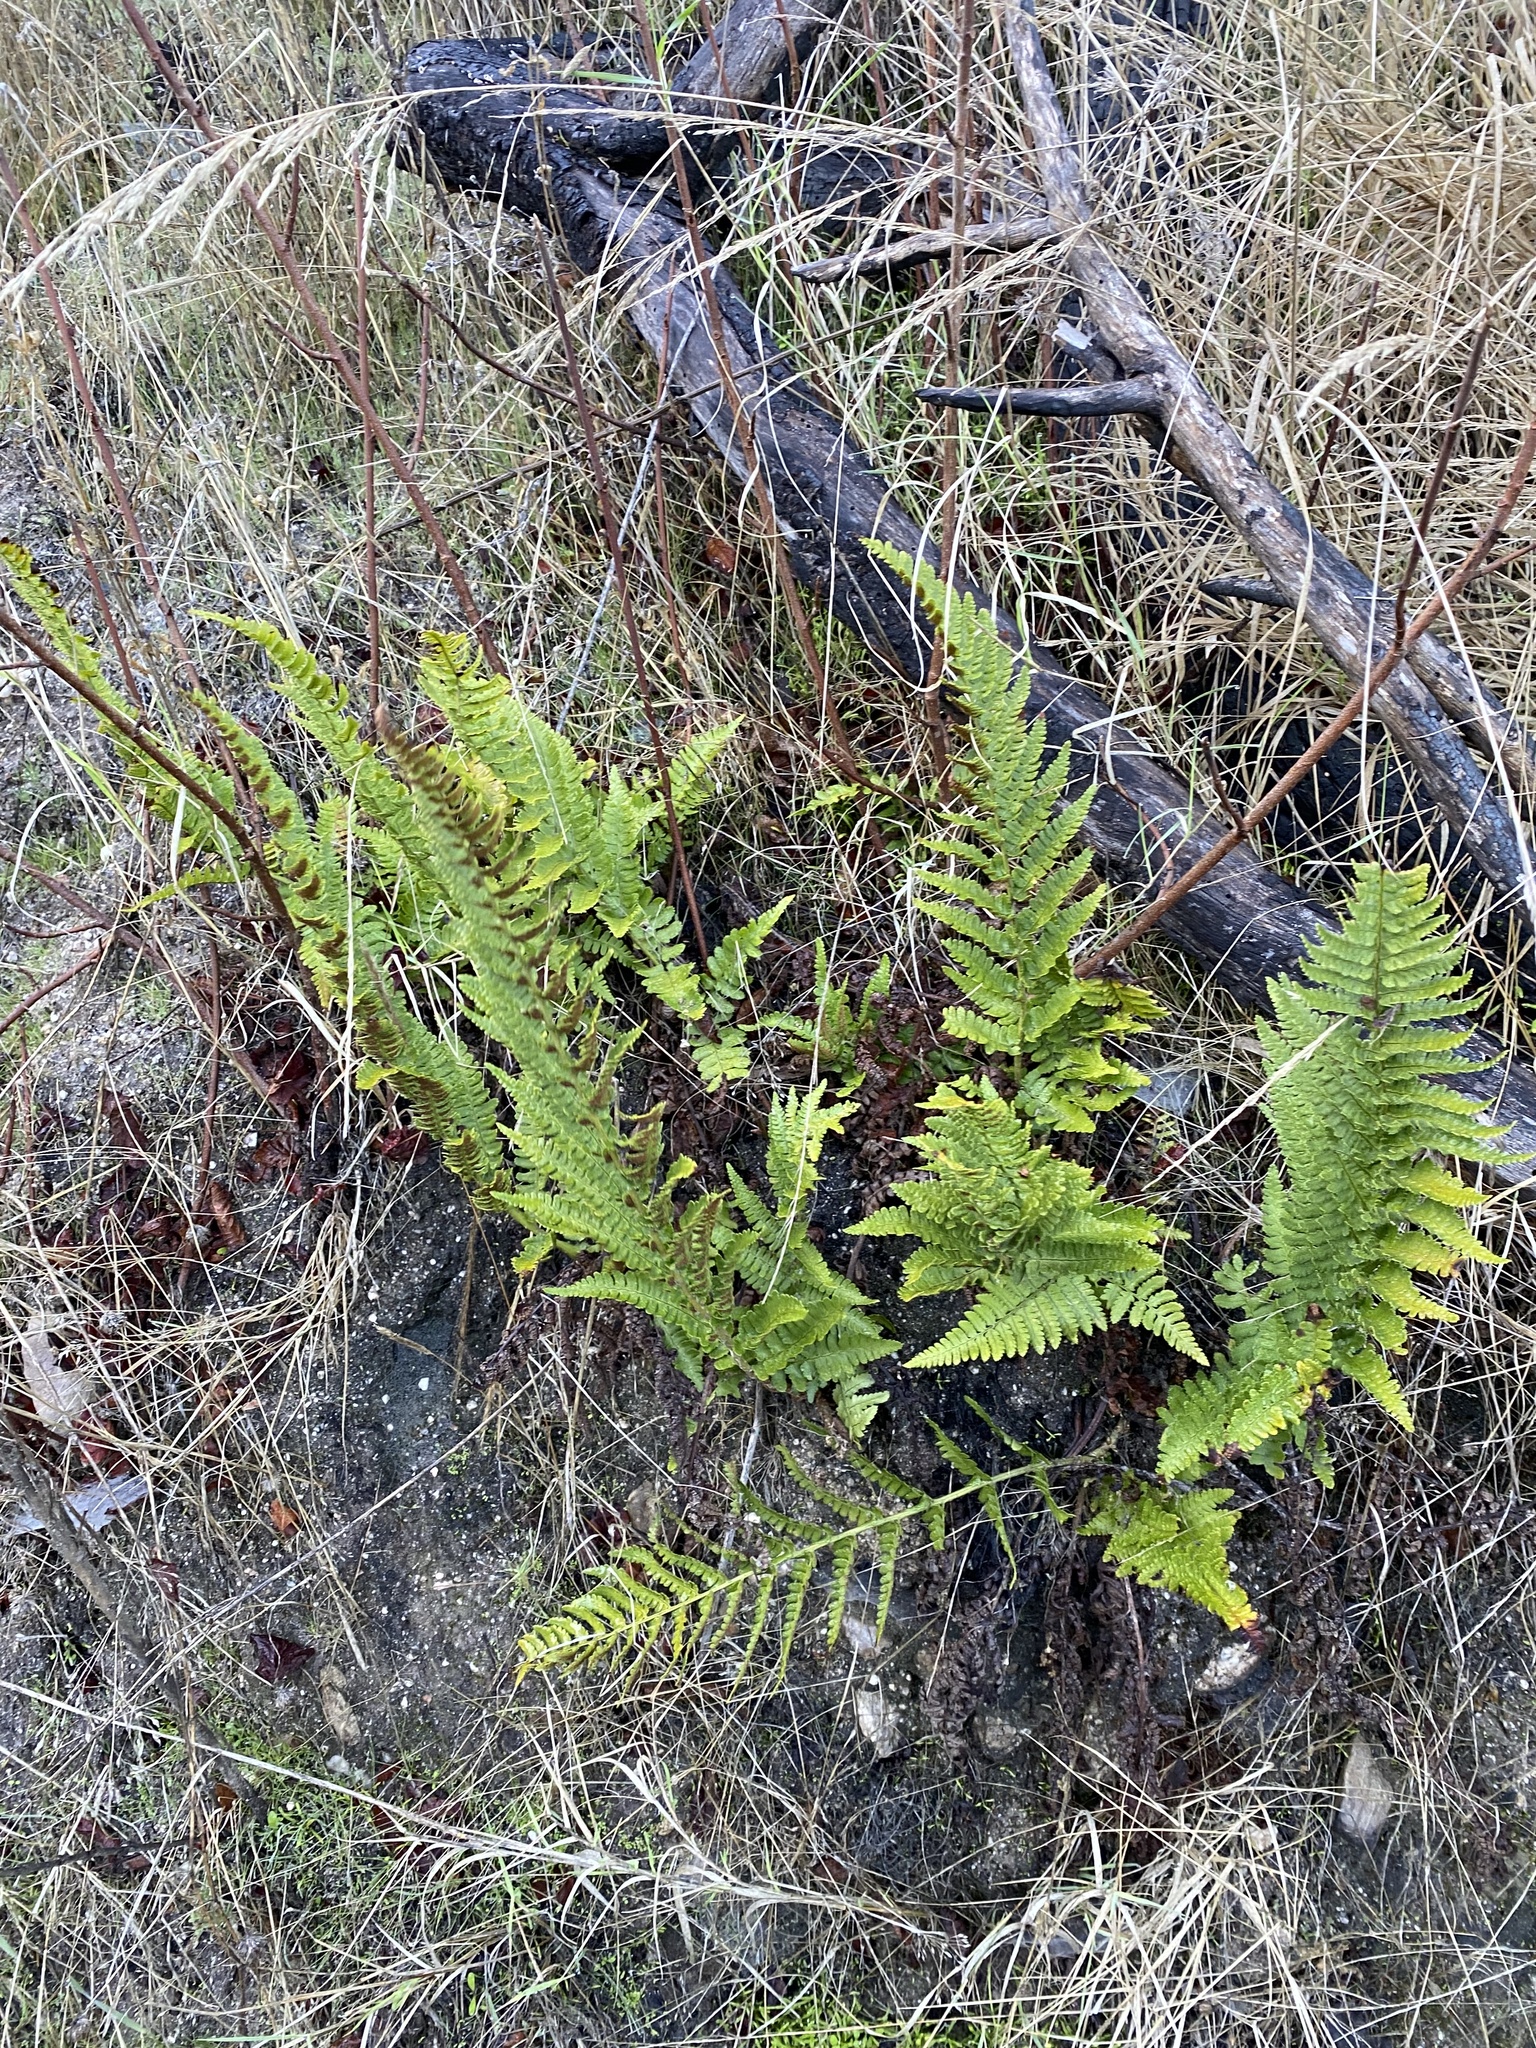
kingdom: Plantae
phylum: Tracheophyta
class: Polypodiopsida
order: Polypodiales
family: Dryopteridaceae
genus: Dryopteris
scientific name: Dryopteris arguta
